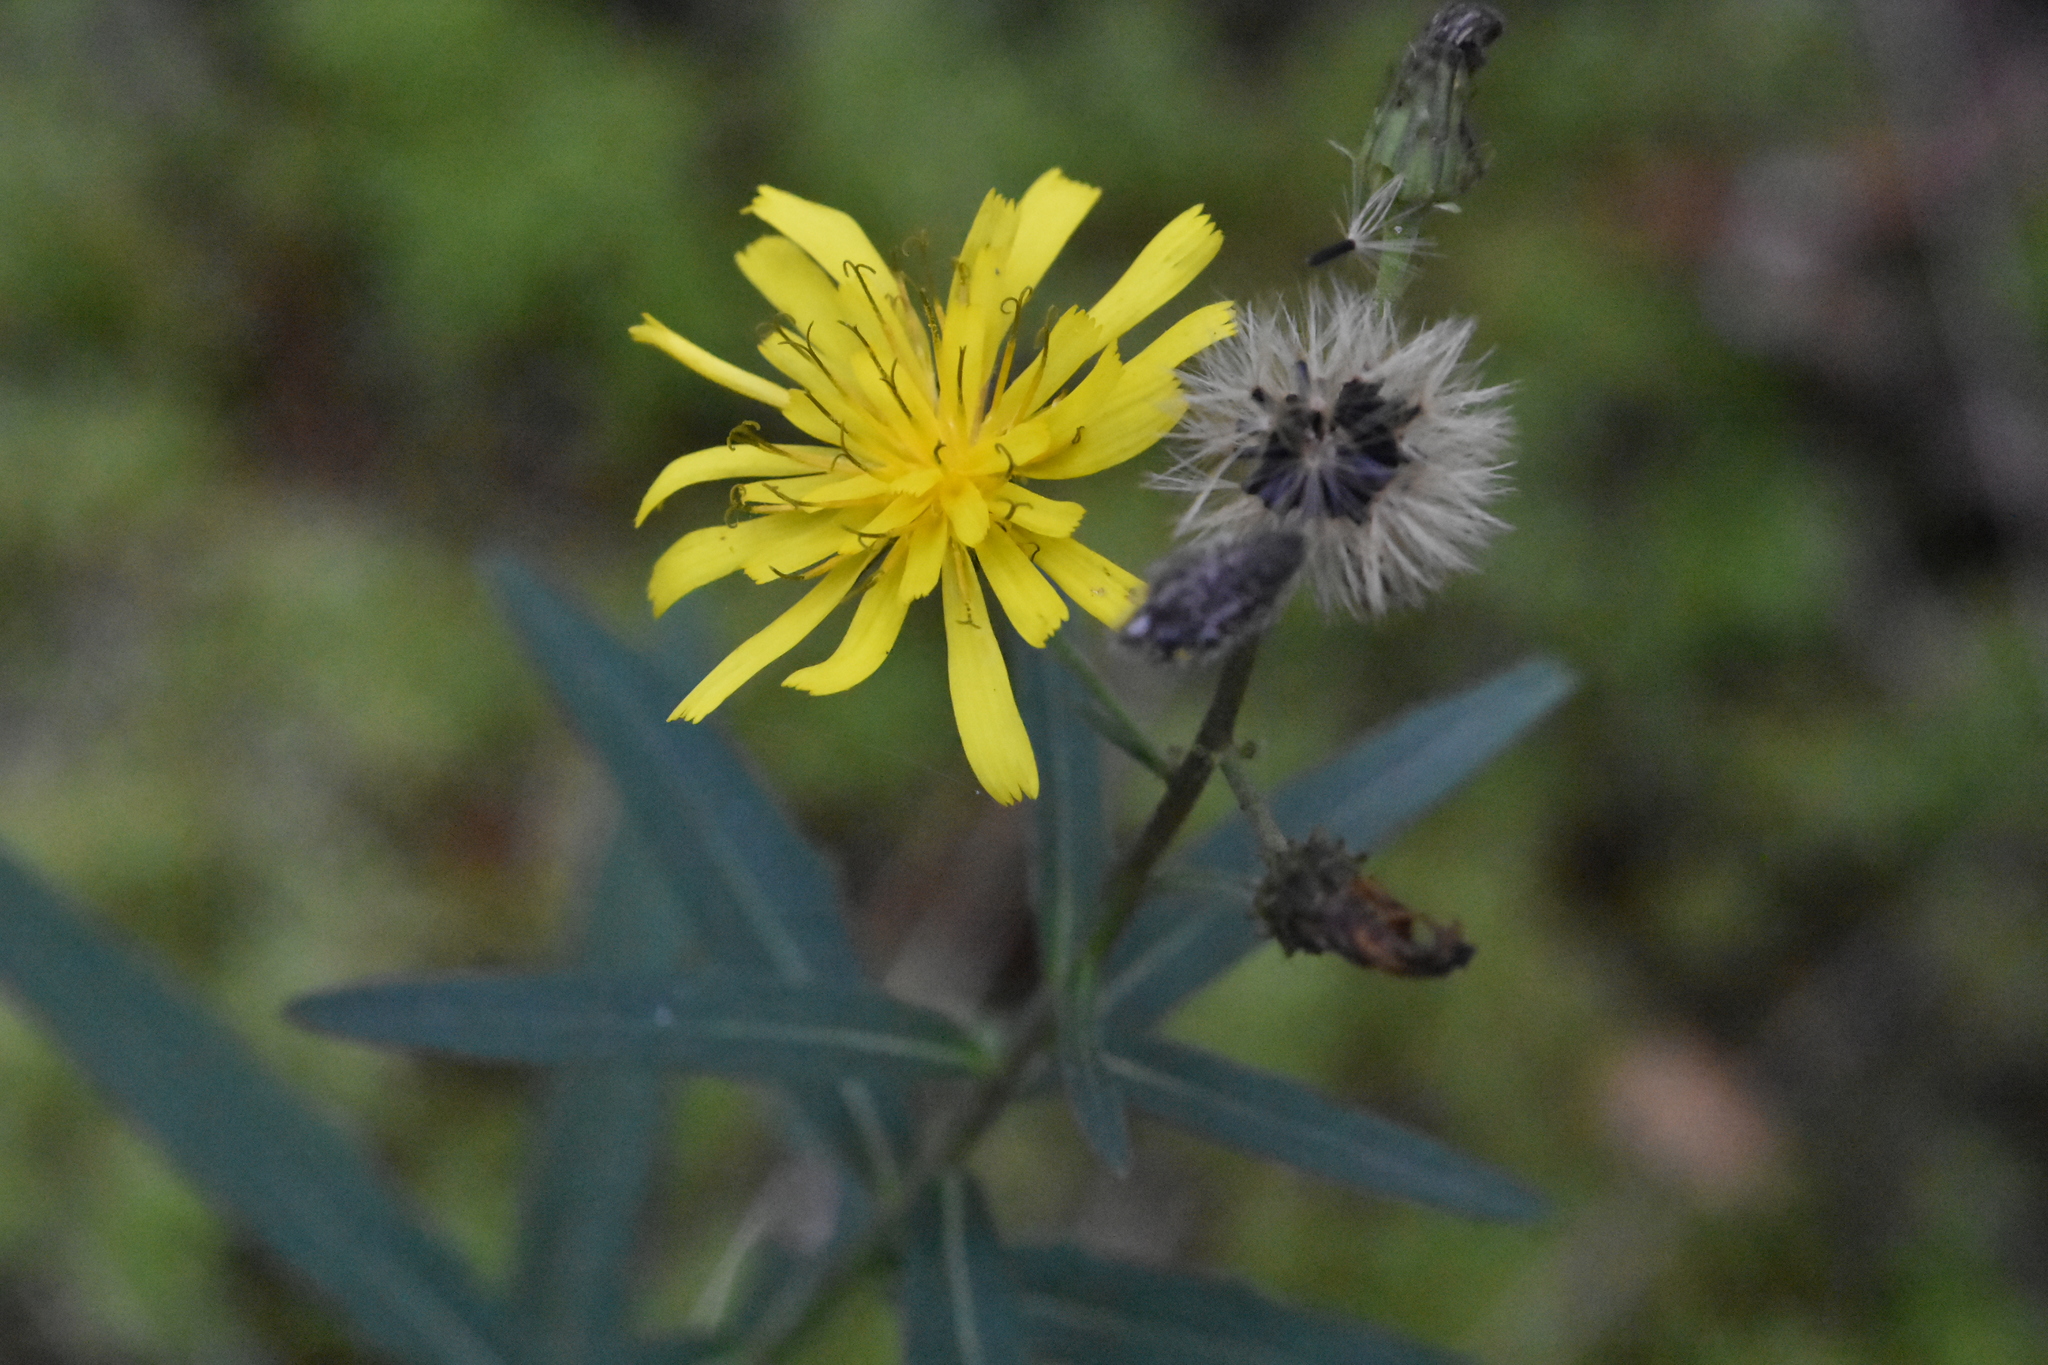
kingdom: Plantae
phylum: Tracheophyta
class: Magnoliopsida
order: Asterales
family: Asteraceae
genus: Hieracium
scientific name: Hieracium umbellatum
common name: Northern hawkweed
